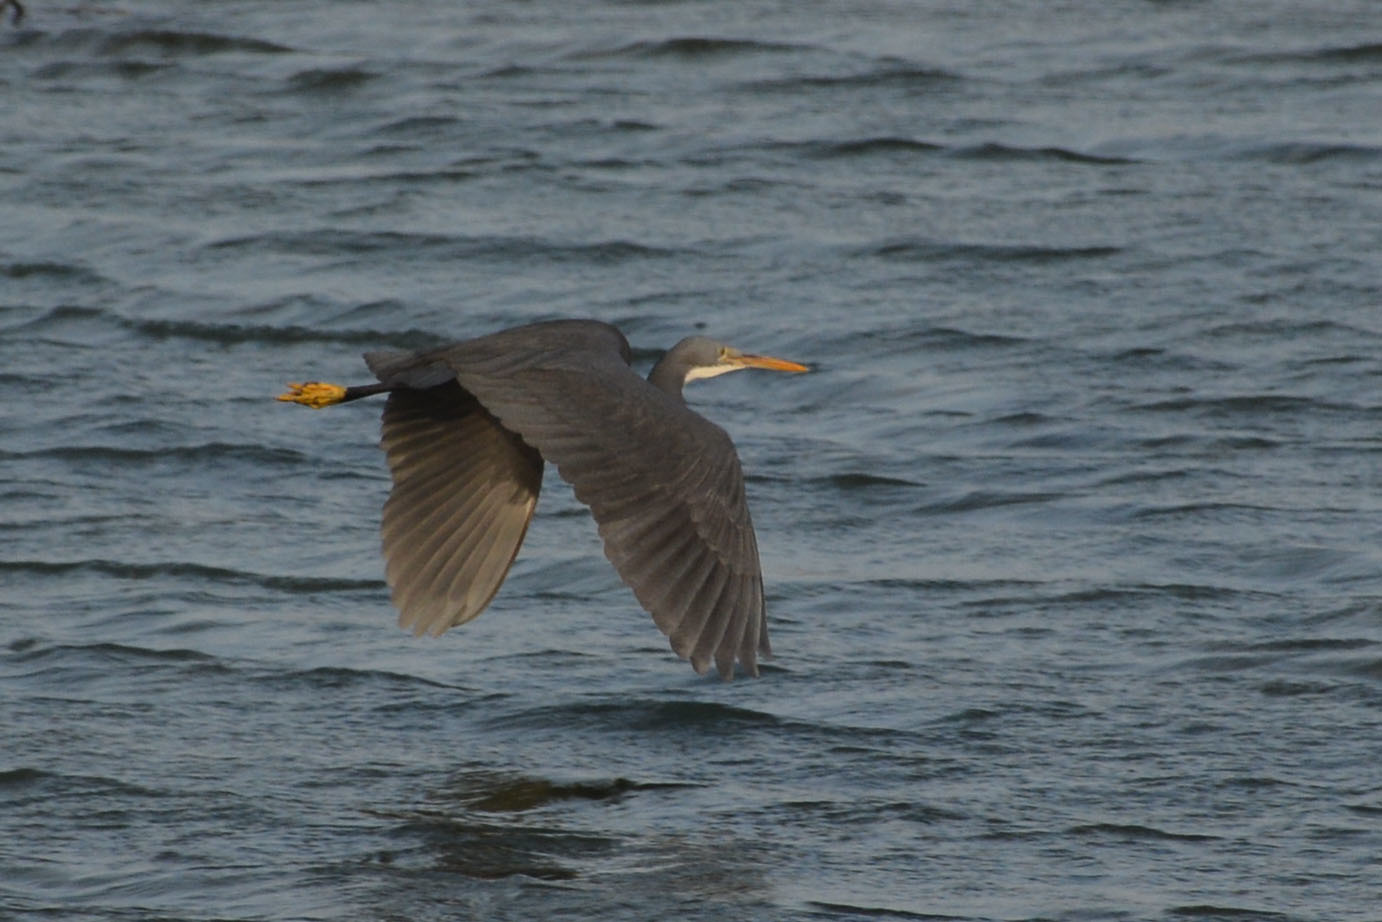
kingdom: Animalia
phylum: Chordata
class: Aves
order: Pelecaniformes
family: Ardeidae
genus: Egretta
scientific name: Egretta gularis
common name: Western reef-heron
